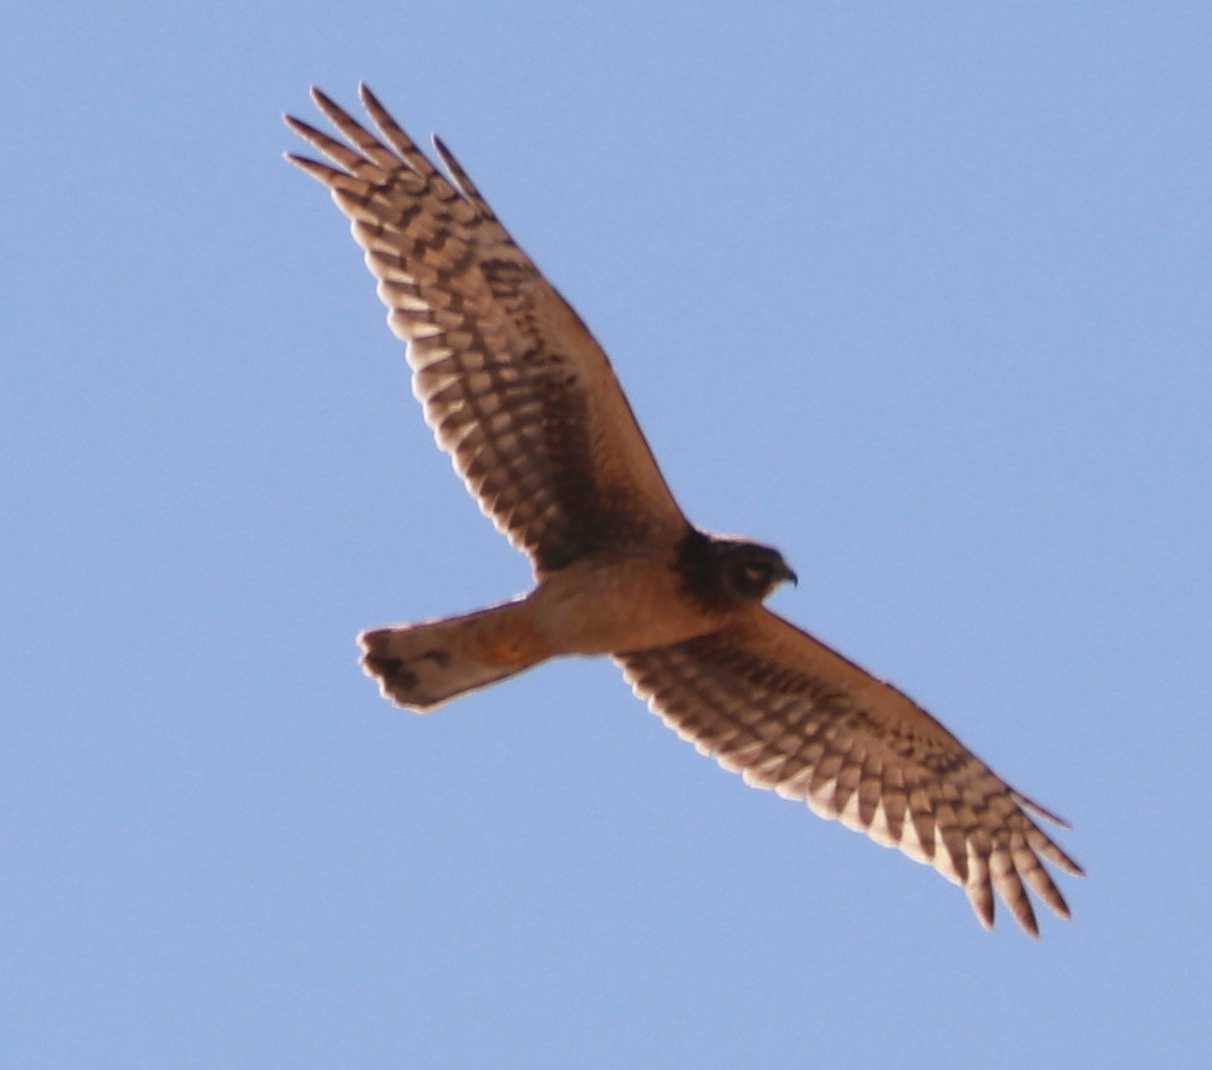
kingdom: Animalia
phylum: Chordata
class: Aves
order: Accipitriformes
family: Accipitridae
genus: Circus
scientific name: Circus cyaneus
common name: Hen harrier
